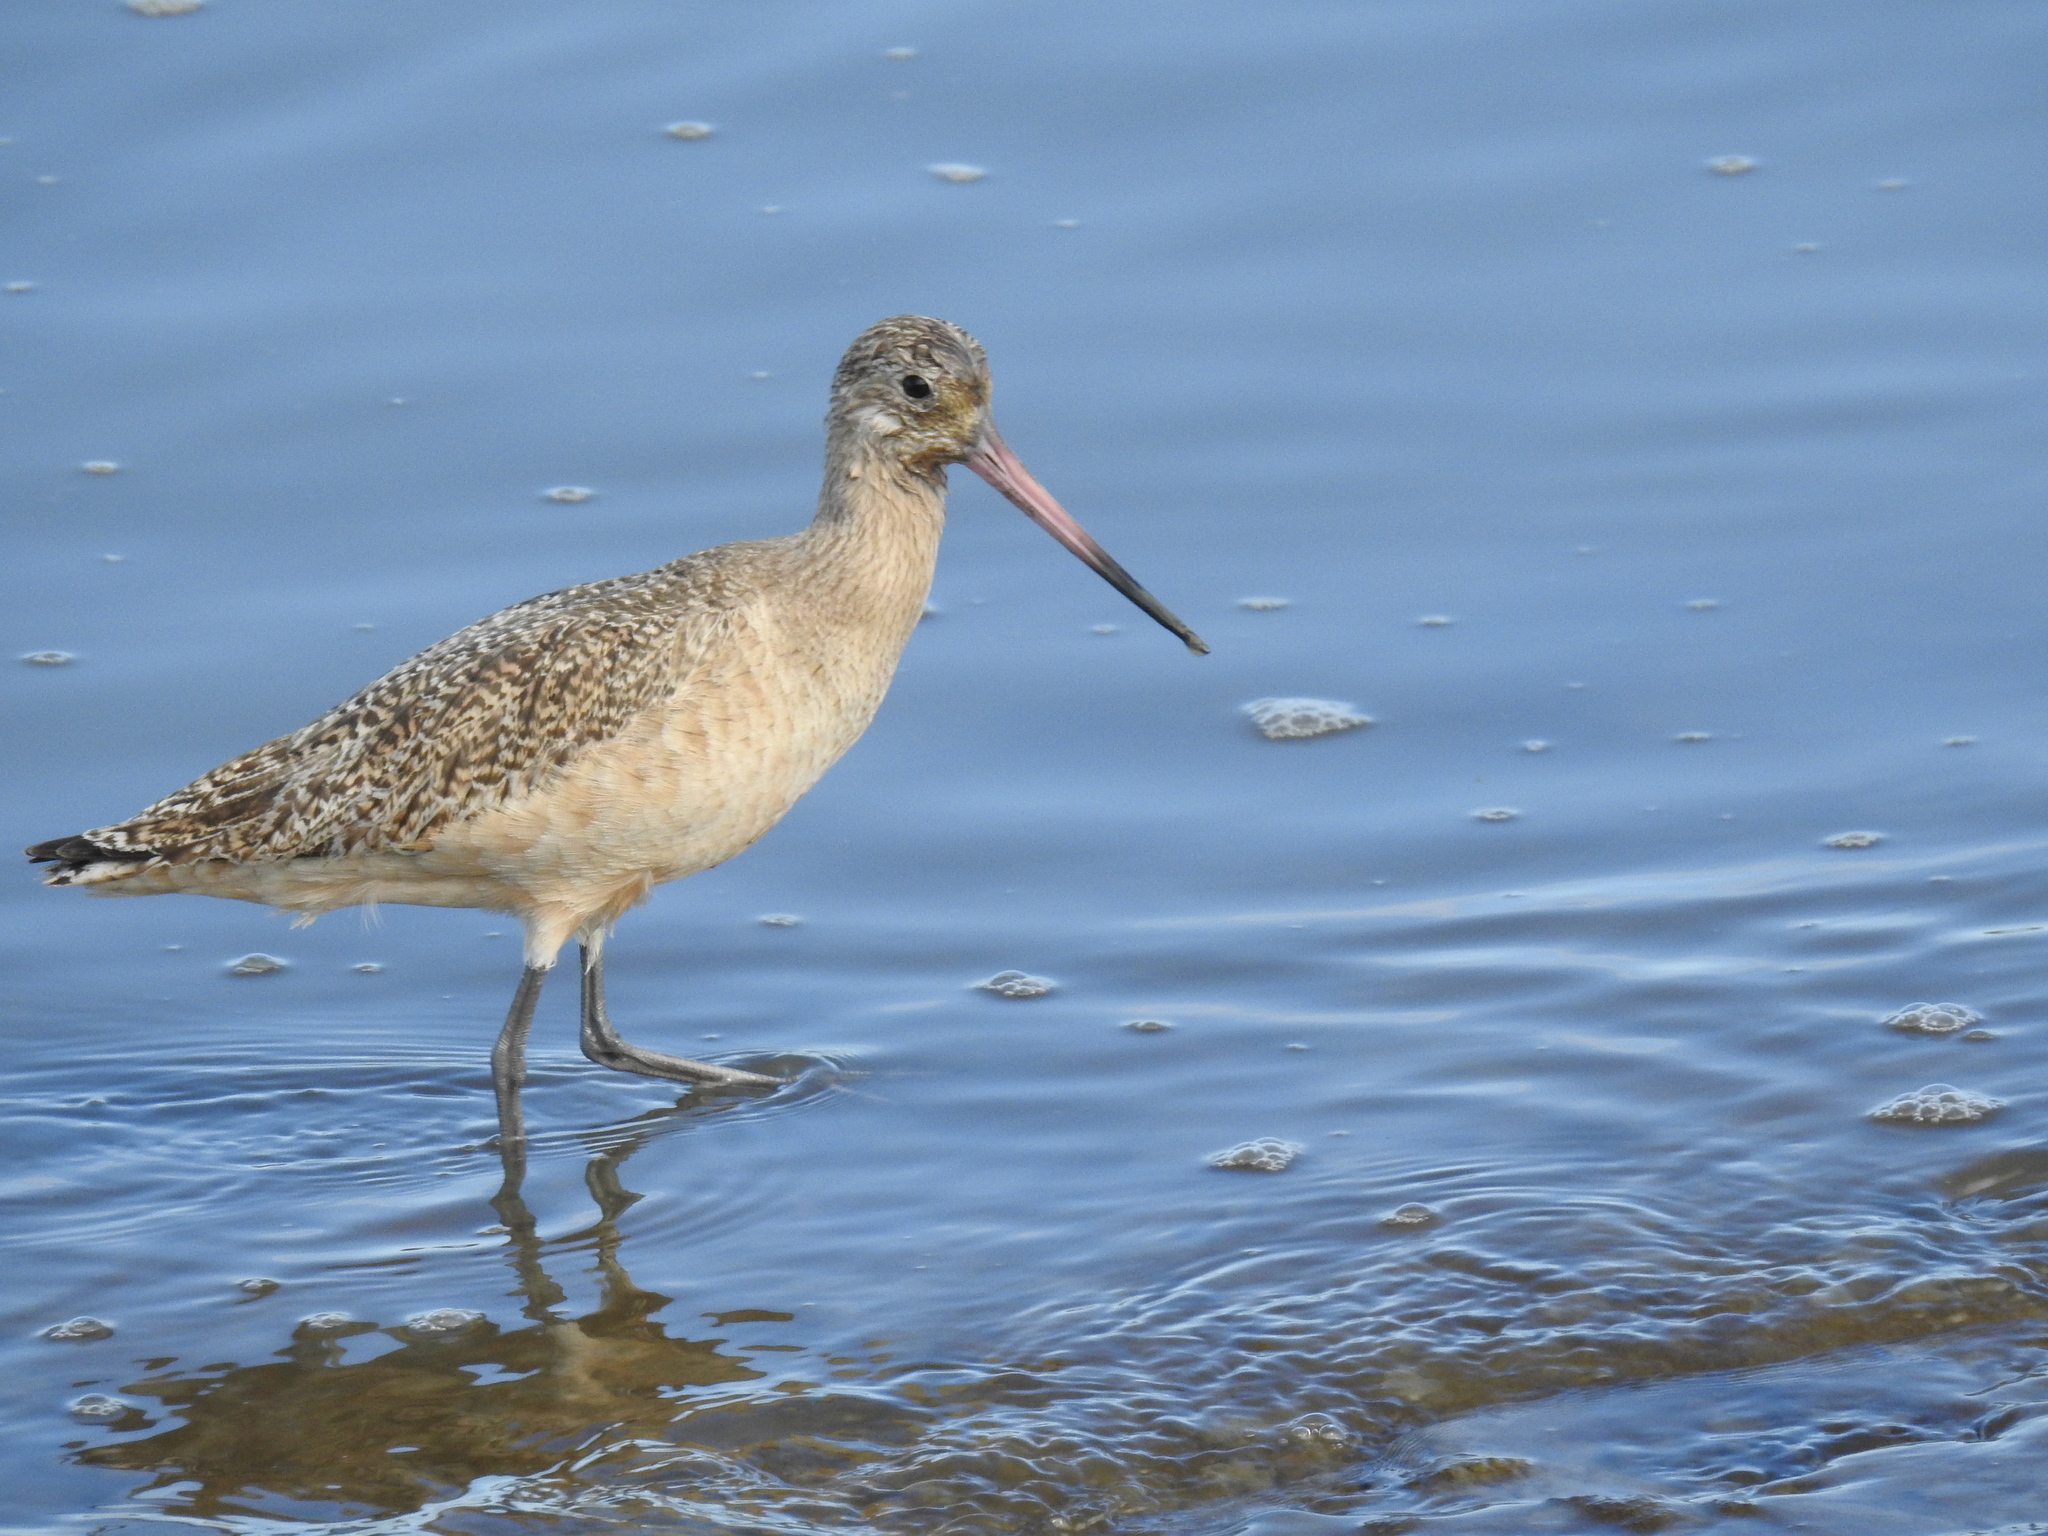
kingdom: Animalia
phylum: Chordata
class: Aves
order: Charadriiformes
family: Scolopacidae
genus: Limosa
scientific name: Limosa fedoa
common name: Marbled godwit
